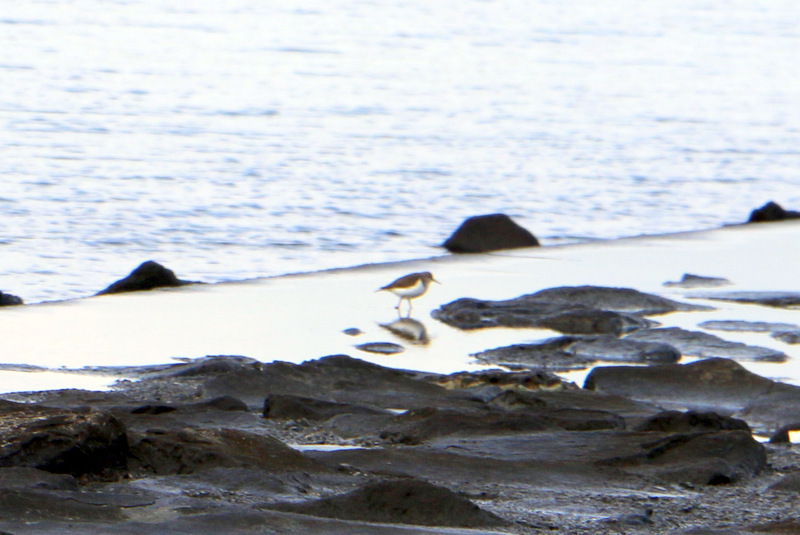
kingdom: Animalia
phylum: Chordata
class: Aves
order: Charadriiformes
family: Scolopacidae
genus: Actitis
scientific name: Actitis hypoleucos
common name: Common sandpiper
